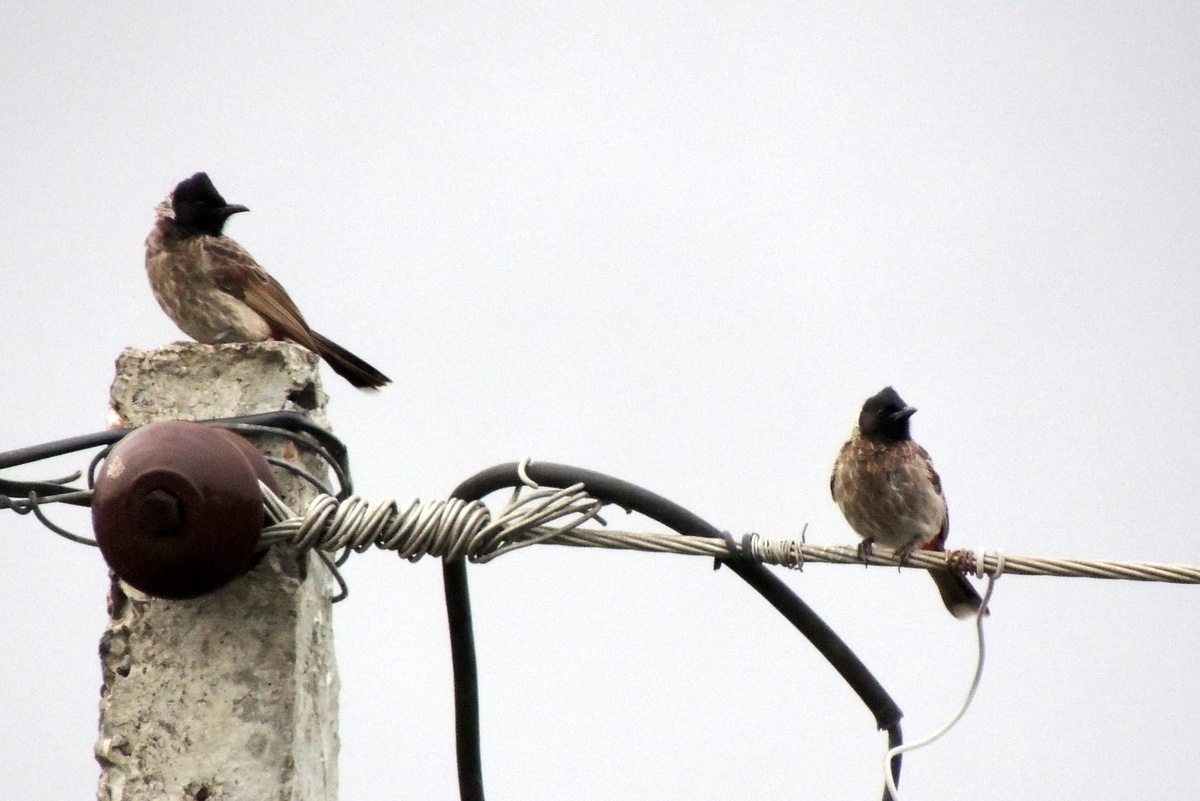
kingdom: Animalia
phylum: Chordata
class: Aves
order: Passeriformes
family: Pycnonotidae
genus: Pycnonotus
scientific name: Pycnonotus cafer
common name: Red-vented bulbul
